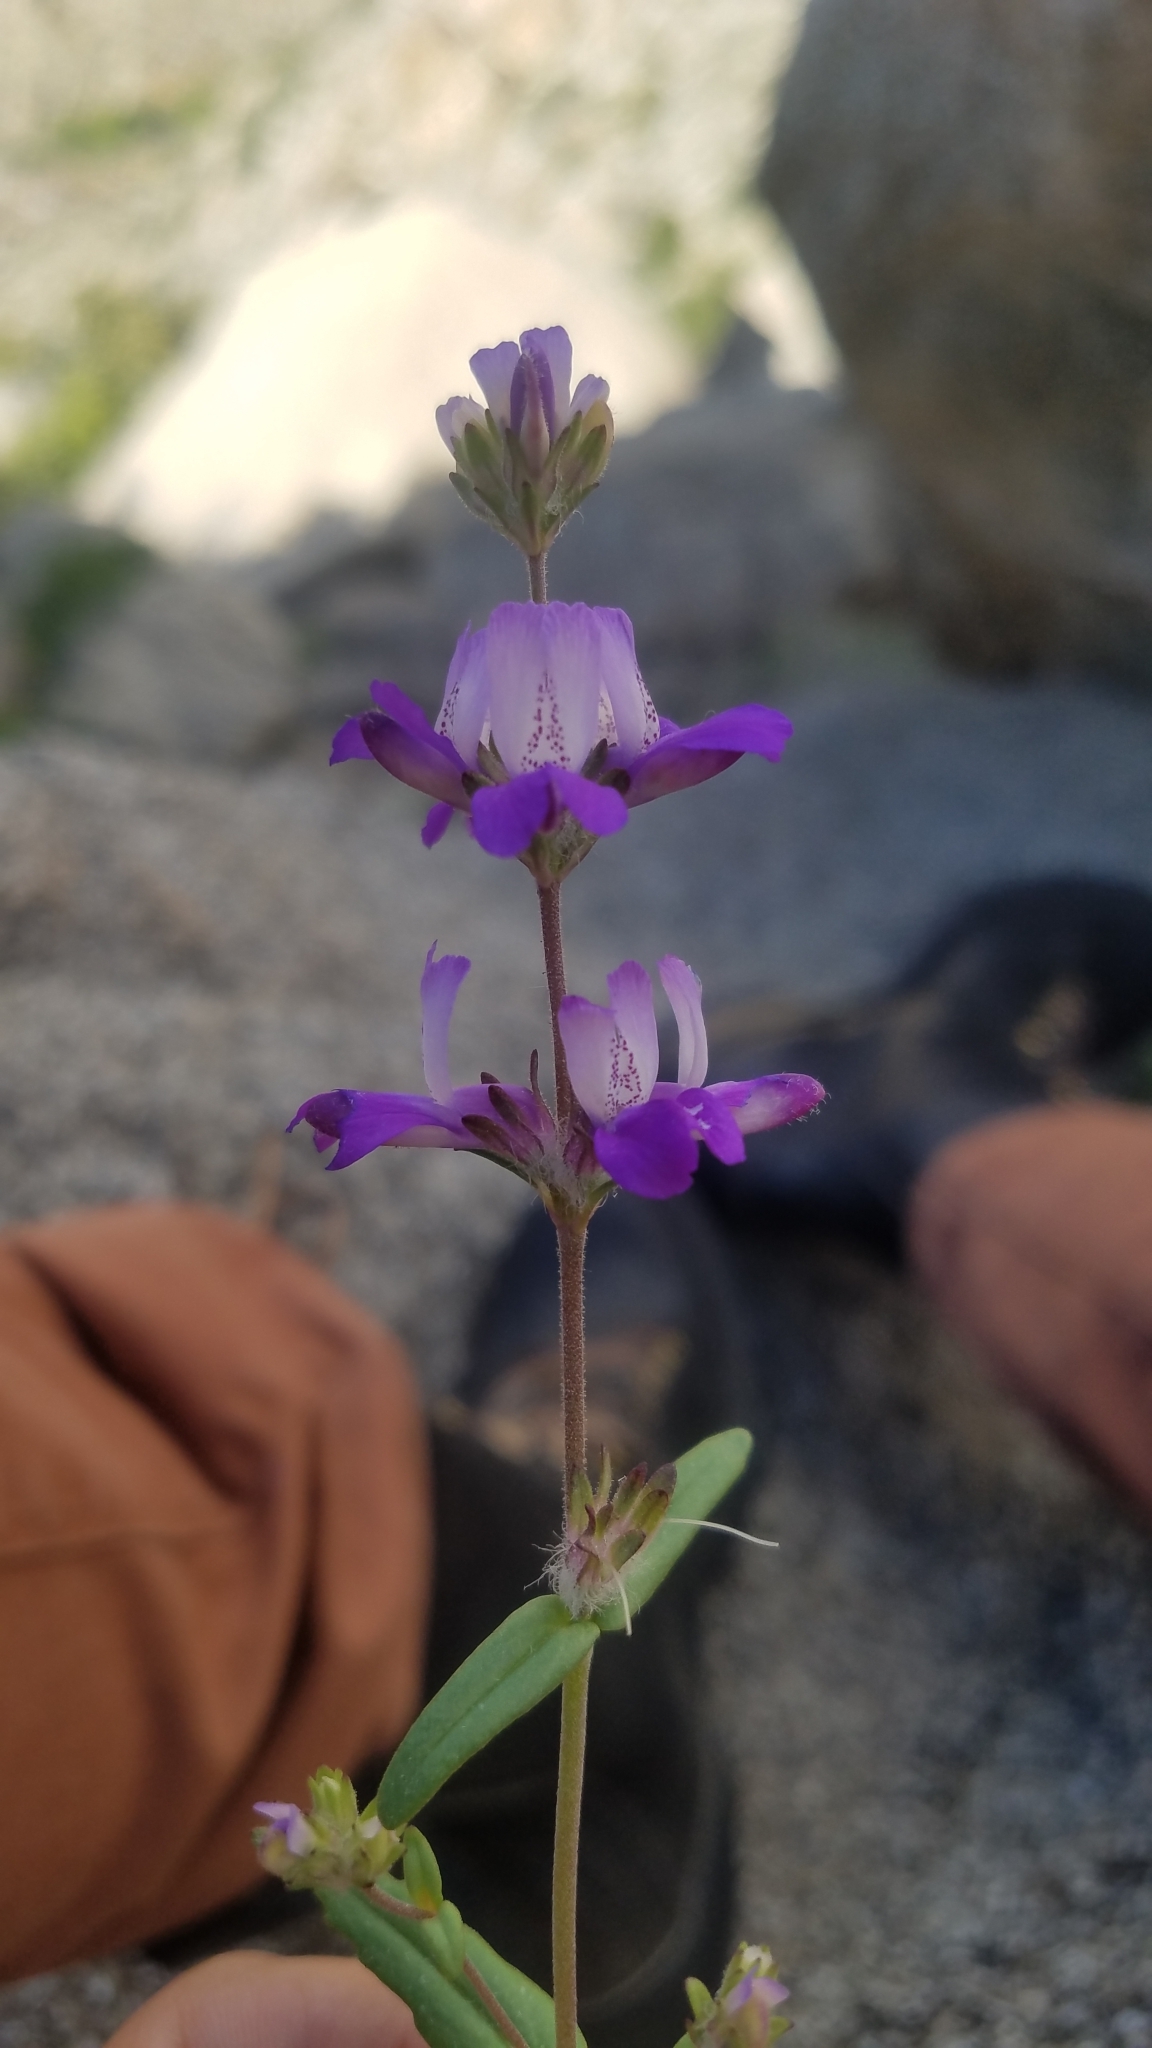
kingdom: Plantae
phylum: Tracheophyta
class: Magnoliopsida
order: Lamiales
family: Plantaginaceae
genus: Collinsia
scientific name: Collinsia concolor
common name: Chinese houses
